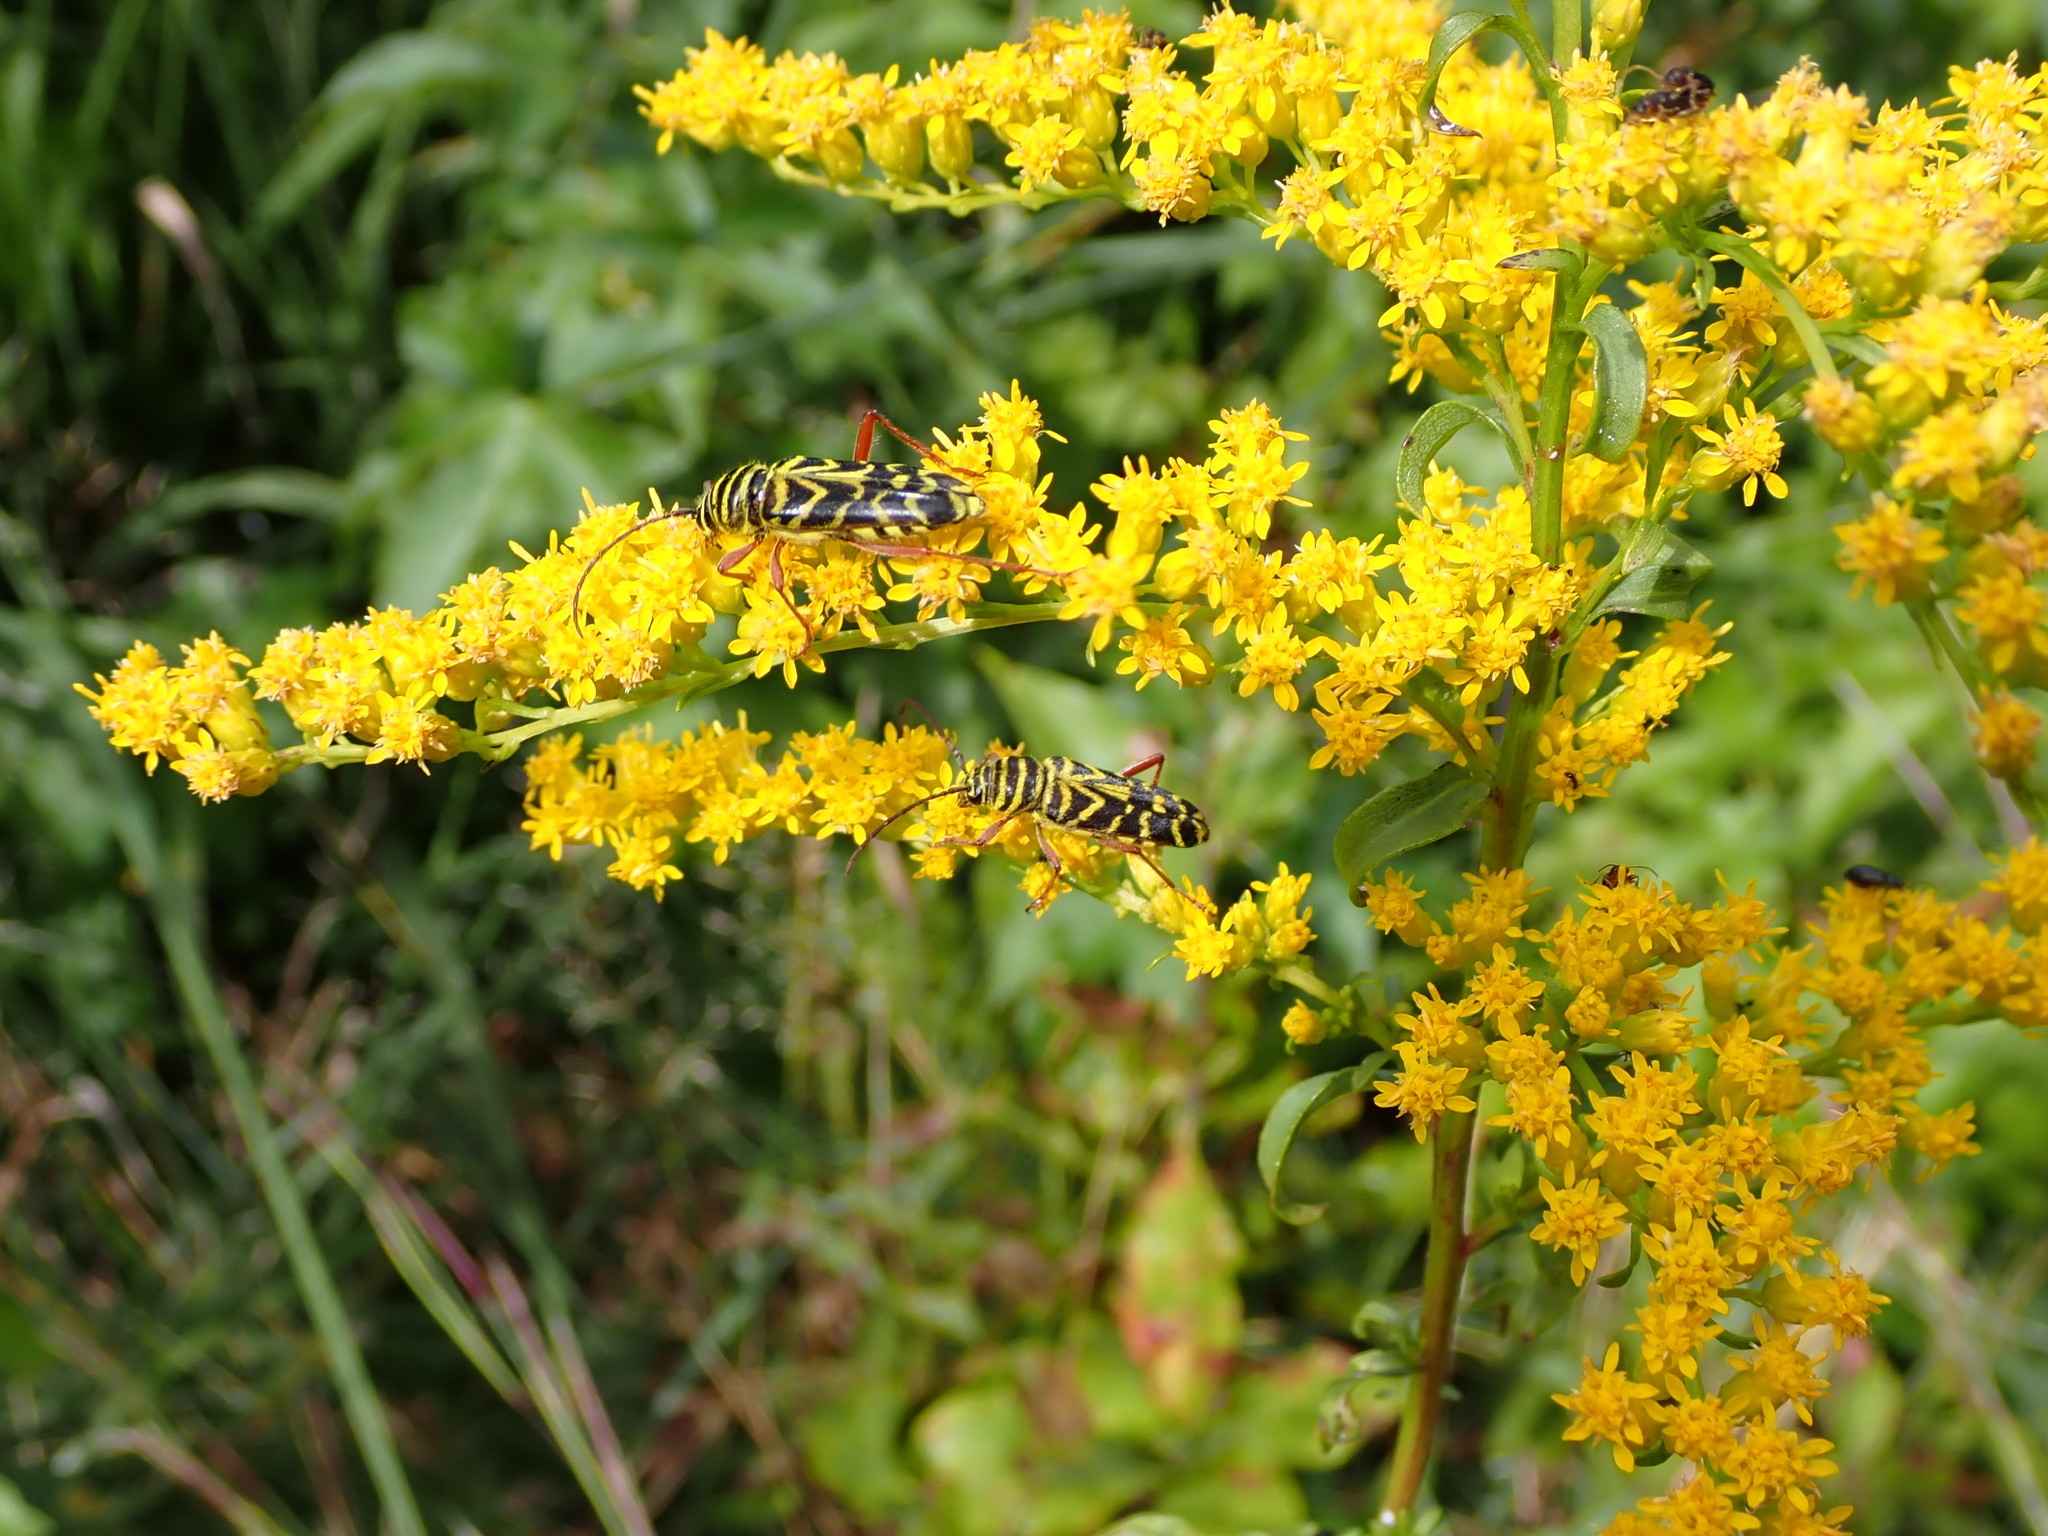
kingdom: Animalia
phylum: Arthropoda
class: Insecta
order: Coleoptera
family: Cerambycidae
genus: Megacyllene
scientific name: Megacyllene robiniae
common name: Locust borer
